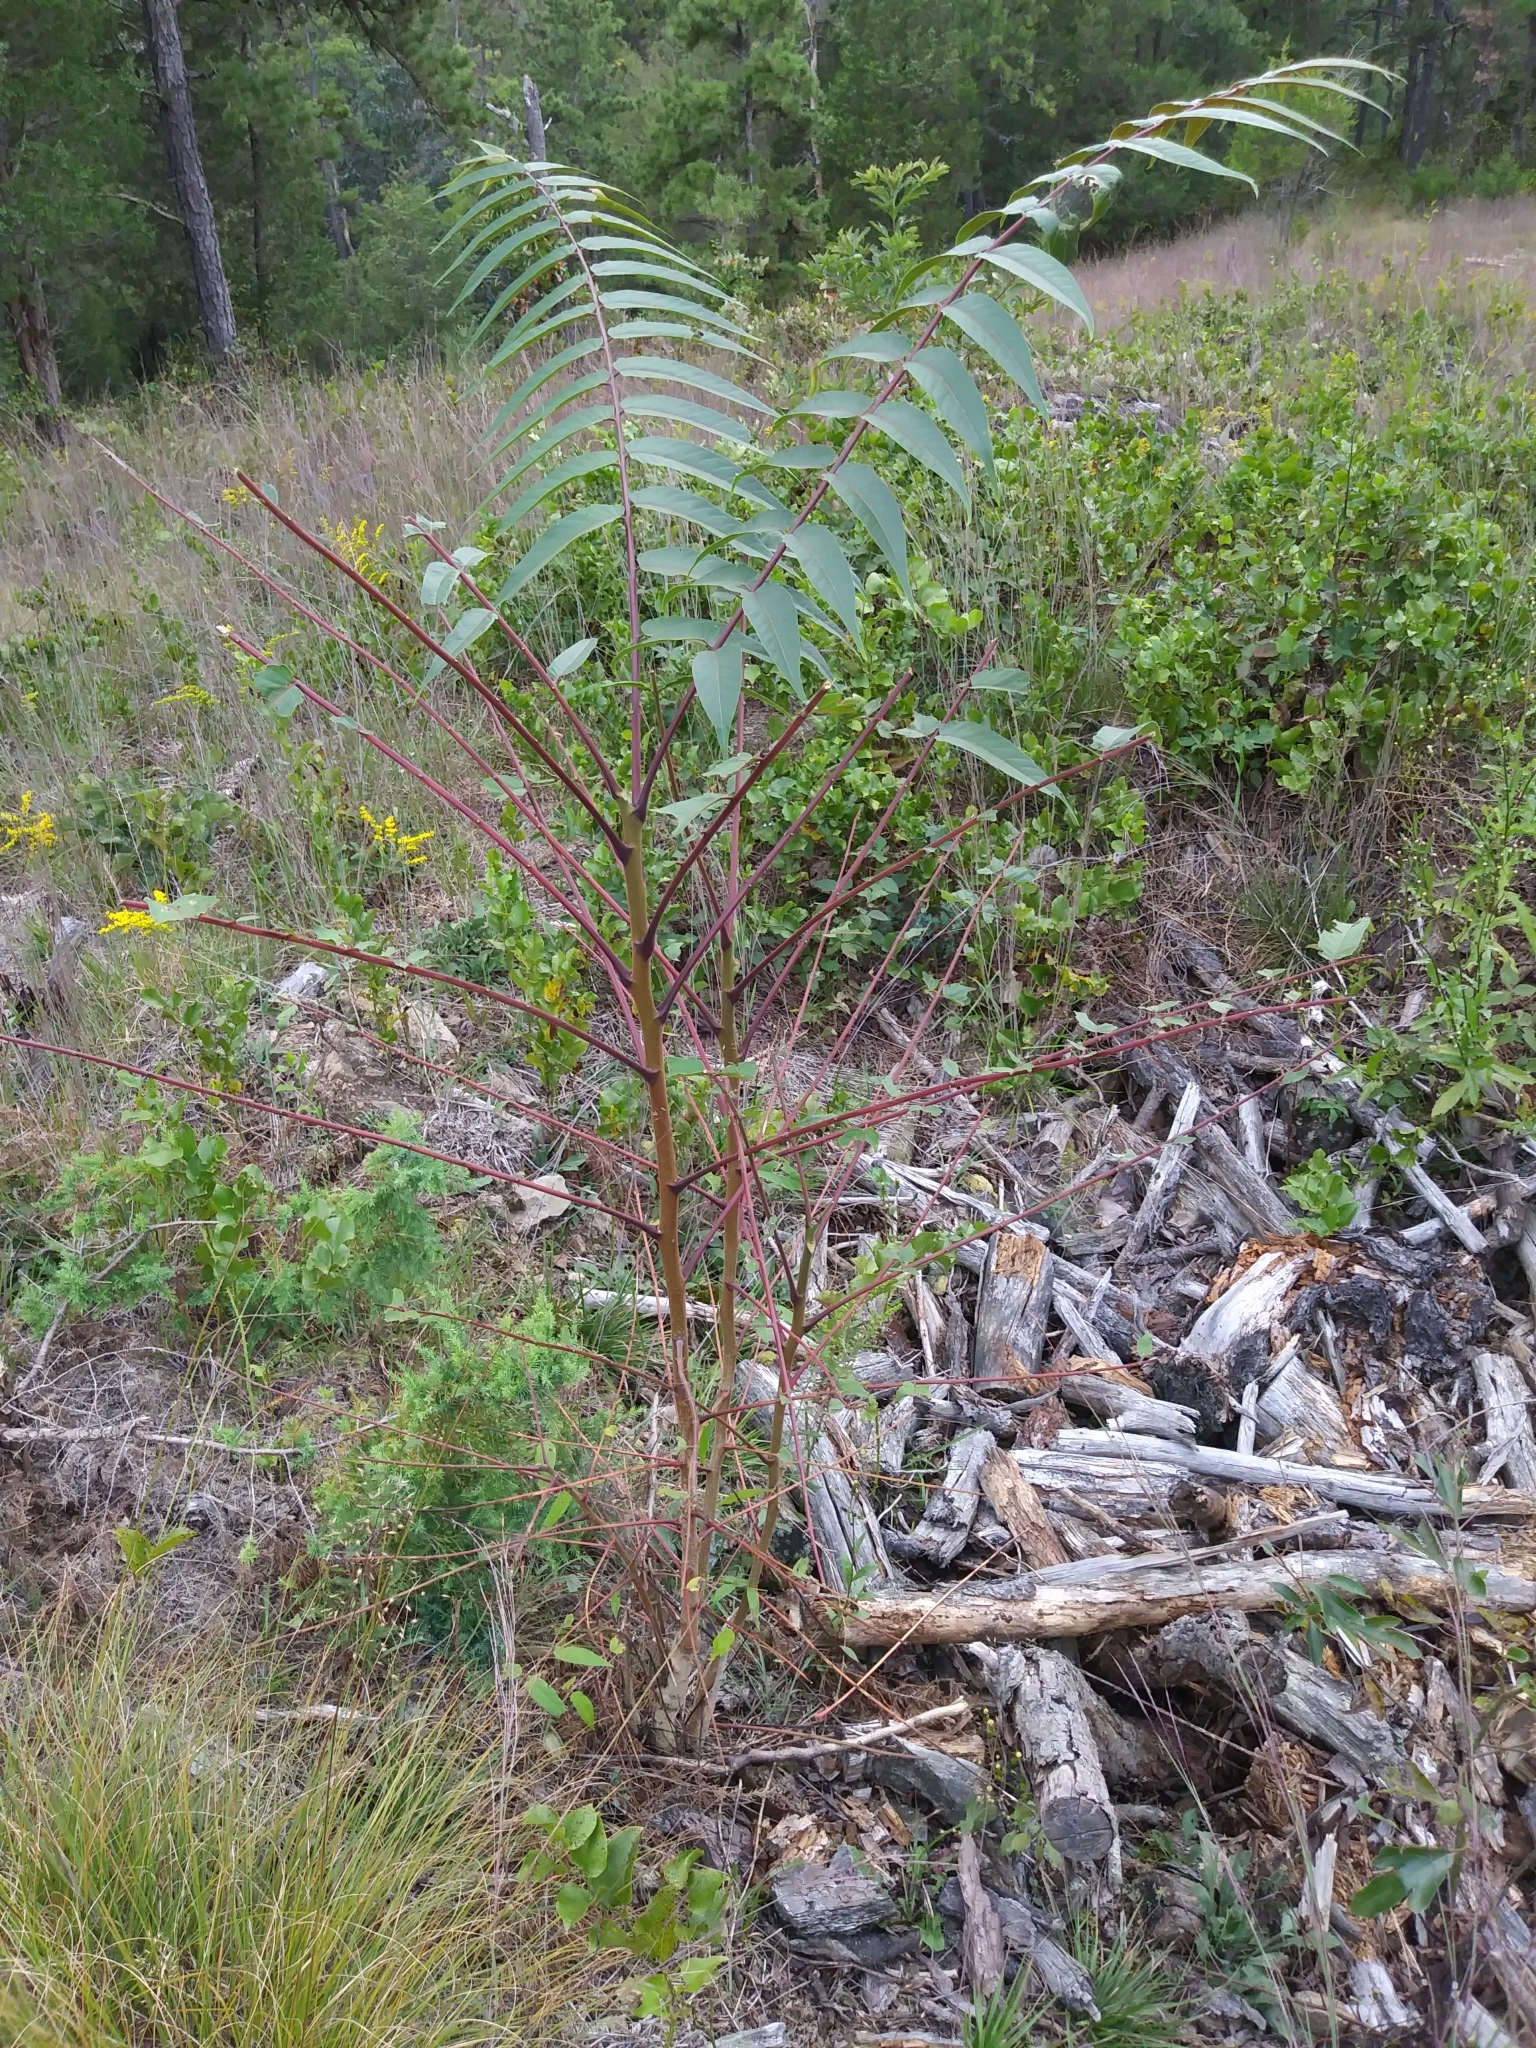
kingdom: Plantae
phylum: Tracheophyta
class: Magnoliopsida
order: Sapindales
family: Simaroubaceae
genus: Ailanthus
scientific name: Ailanthus altissima
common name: Tree-of-heaven
